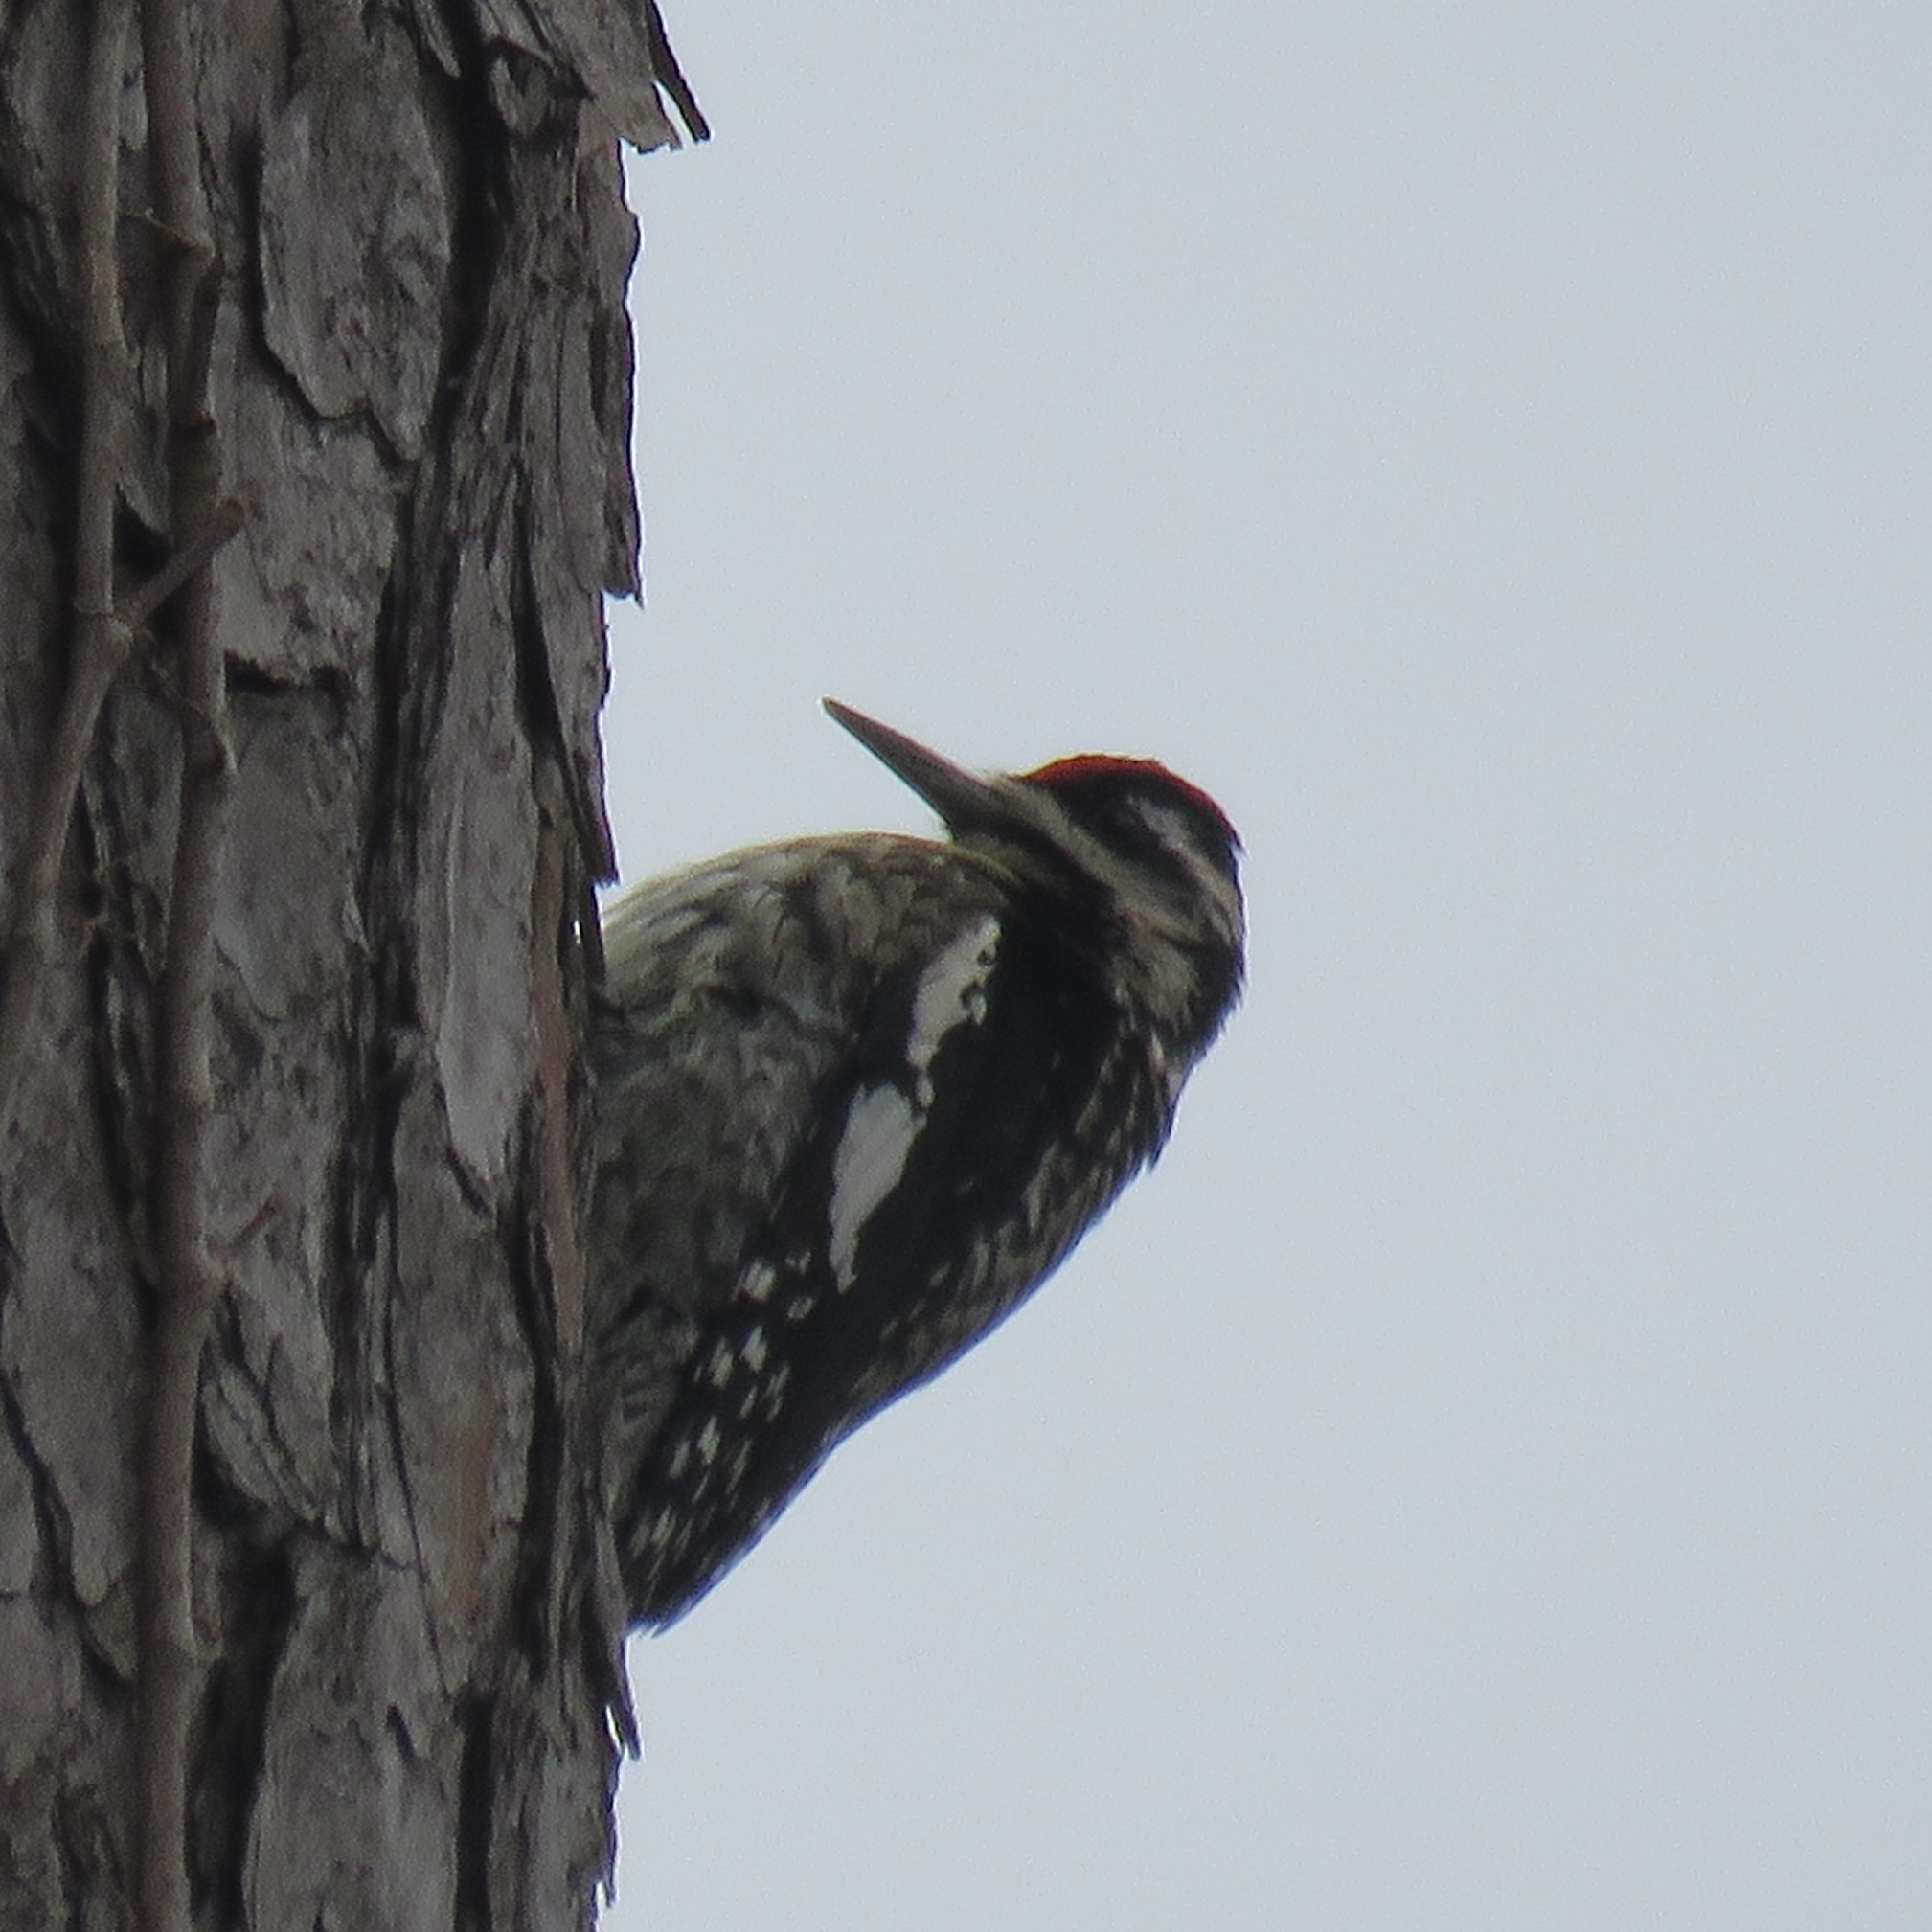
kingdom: Animalia
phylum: Chordata
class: Aves
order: Piciformes
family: Picidae
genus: Sphyrapicus
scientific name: Sphyrapicus varius
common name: Yellow-bellied sapsucker
